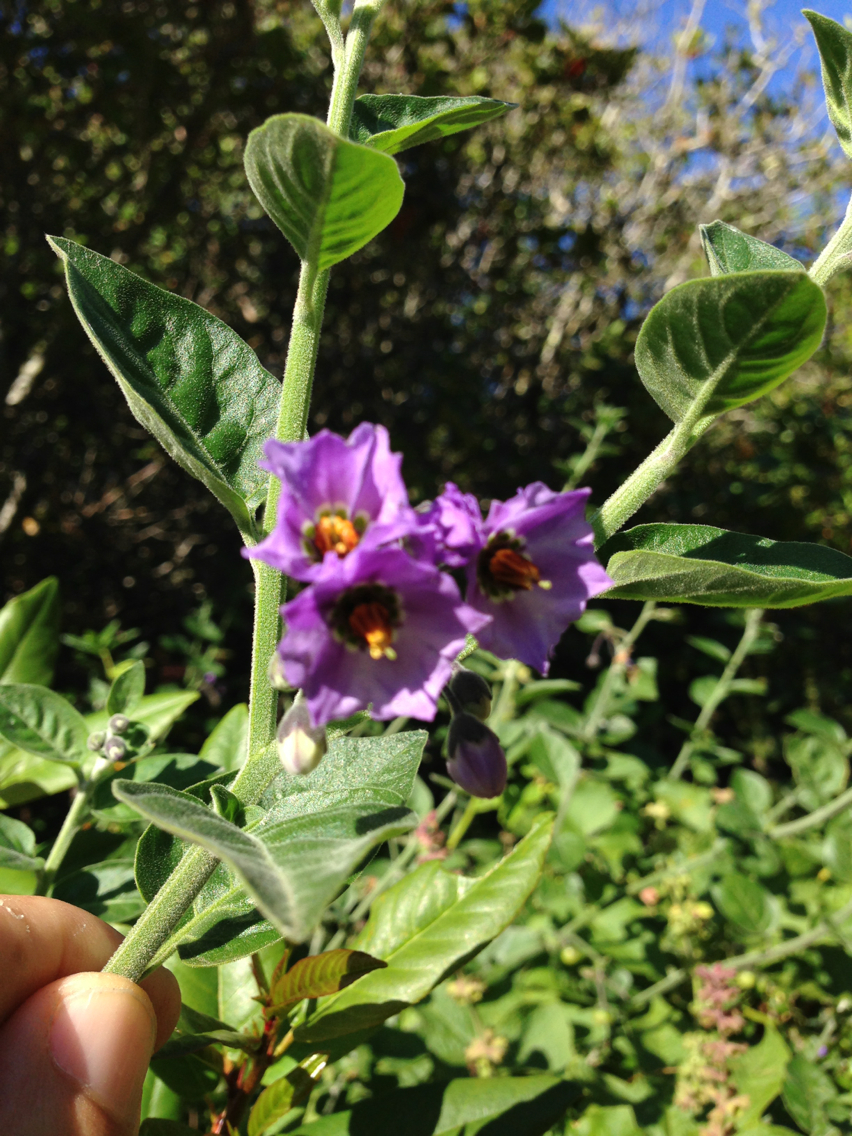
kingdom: Plantae
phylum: Tracheophyta
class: Magnoliopsida
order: Solanales
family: Solanaceae
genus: Solanum
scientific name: Solanum umbelliferum
